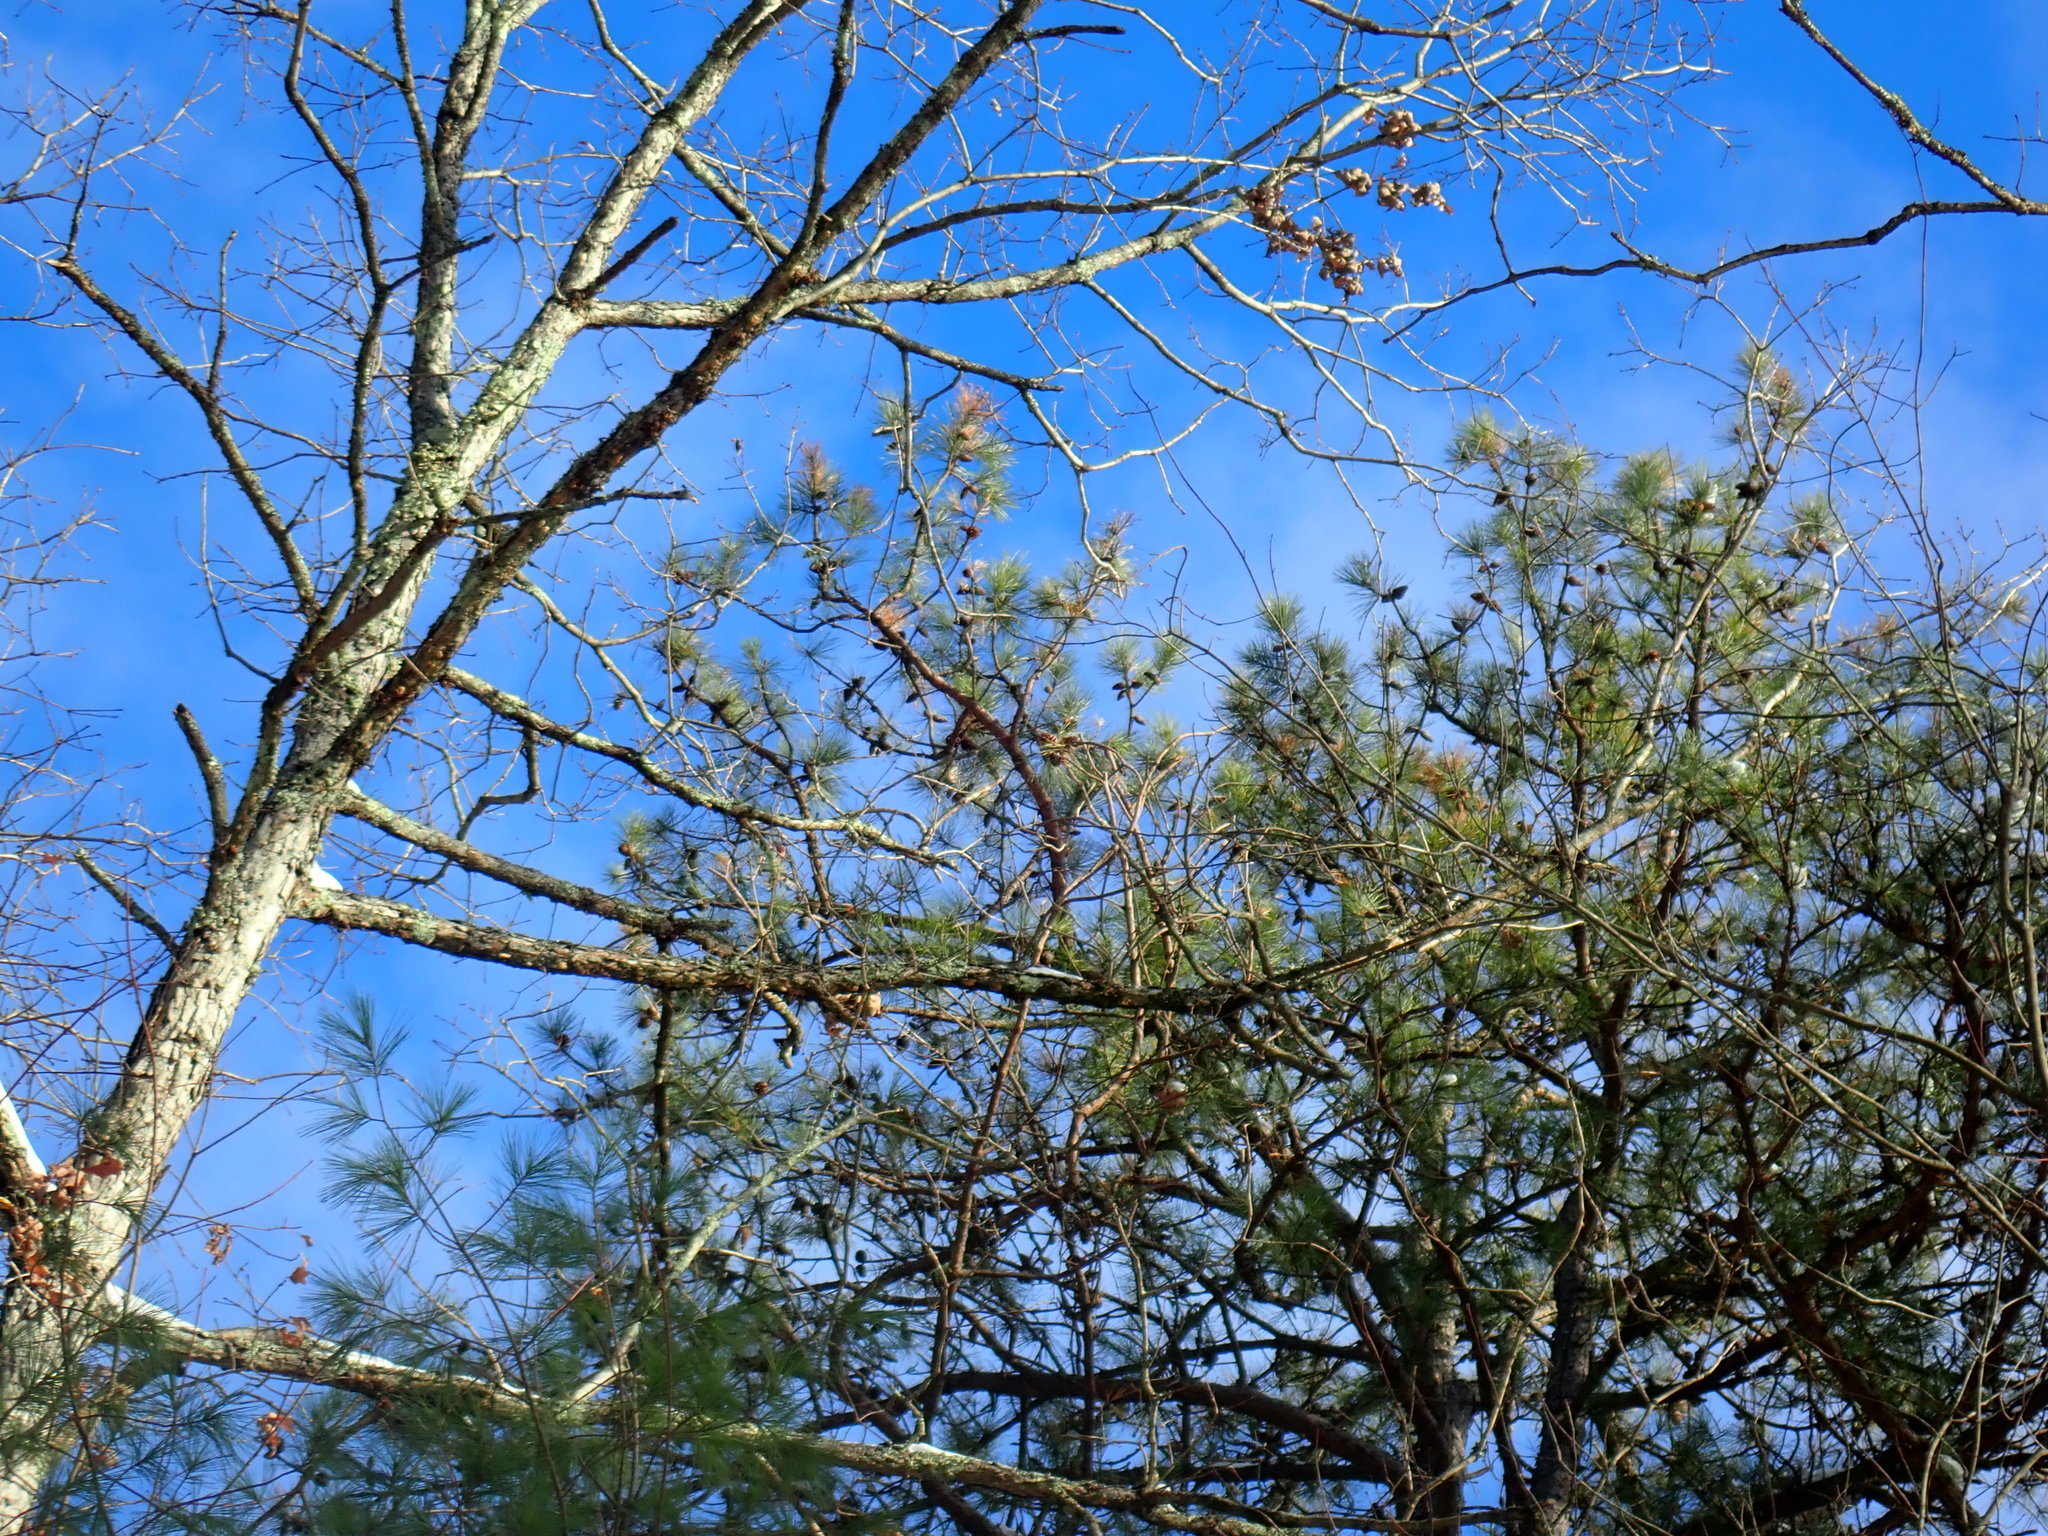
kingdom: Plantae
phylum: Tracheophyta
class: Pinopsida
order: Pinales
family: Pinaceae
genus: Pinus
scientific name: Pinus rigida
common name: Pitch pine
